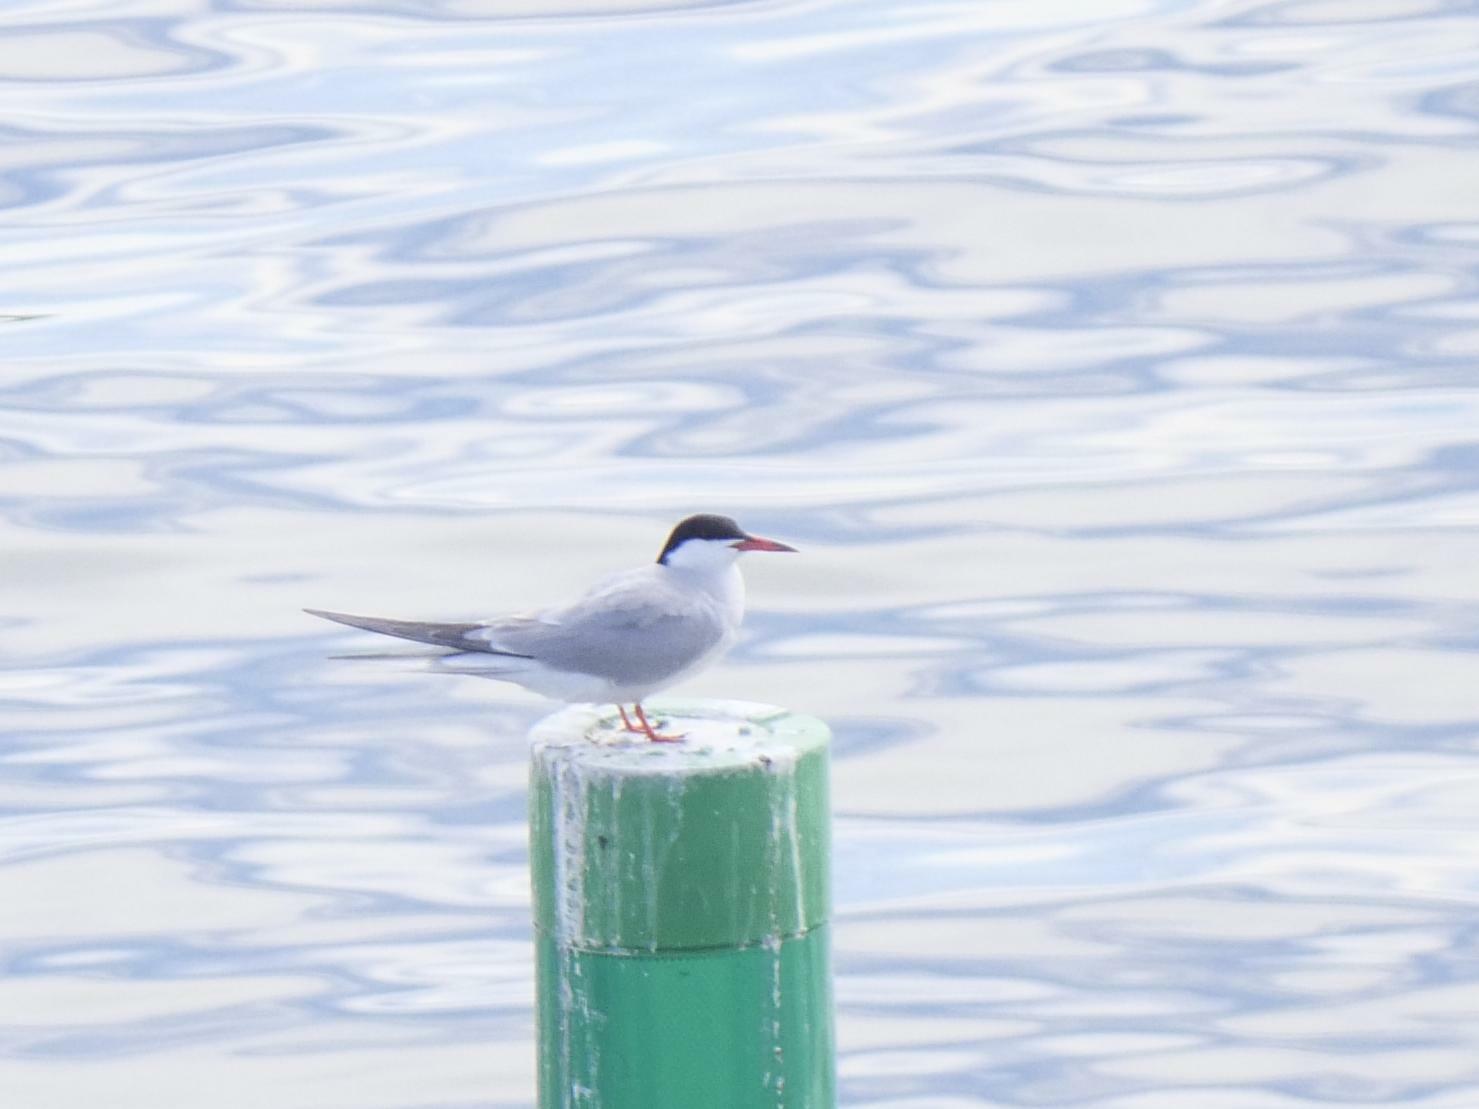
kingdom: Animalia
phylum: Chordata
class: Aves
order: Charadriiformes
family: Laridae
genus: Sterna
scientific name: Sterna hirundo
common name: Common tern
